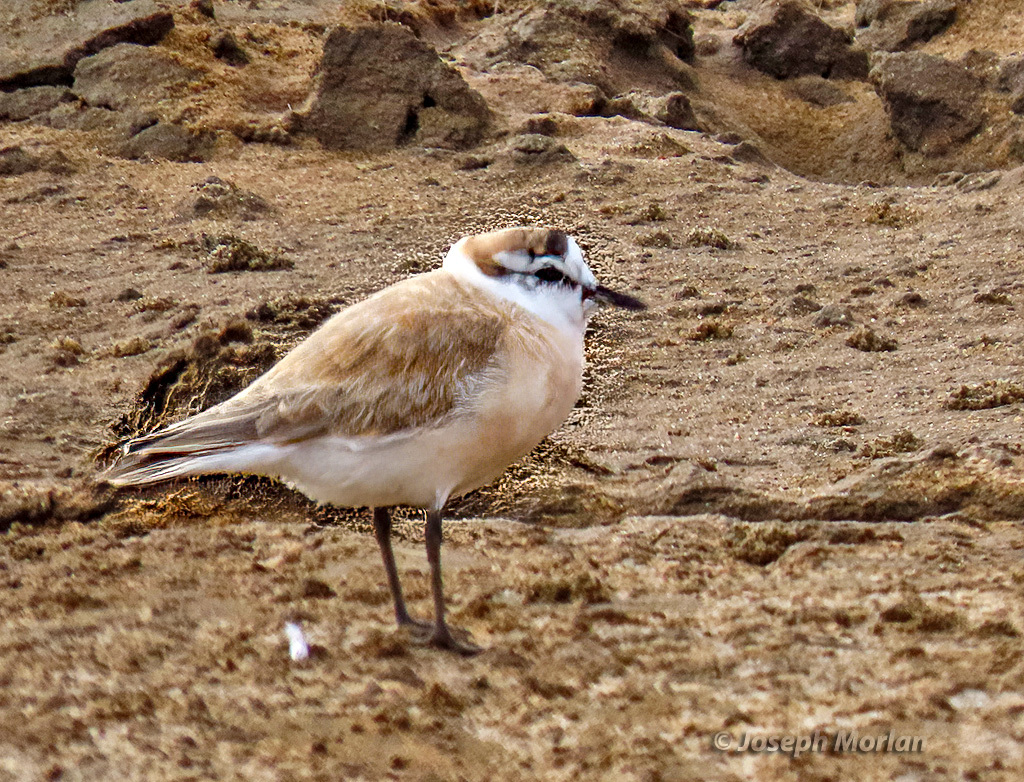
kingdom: Animalia
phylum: Chordata
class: Aves
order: Charadriiformes
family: Charadriidae
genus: Anarhynchus
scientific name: Anarhynchus
